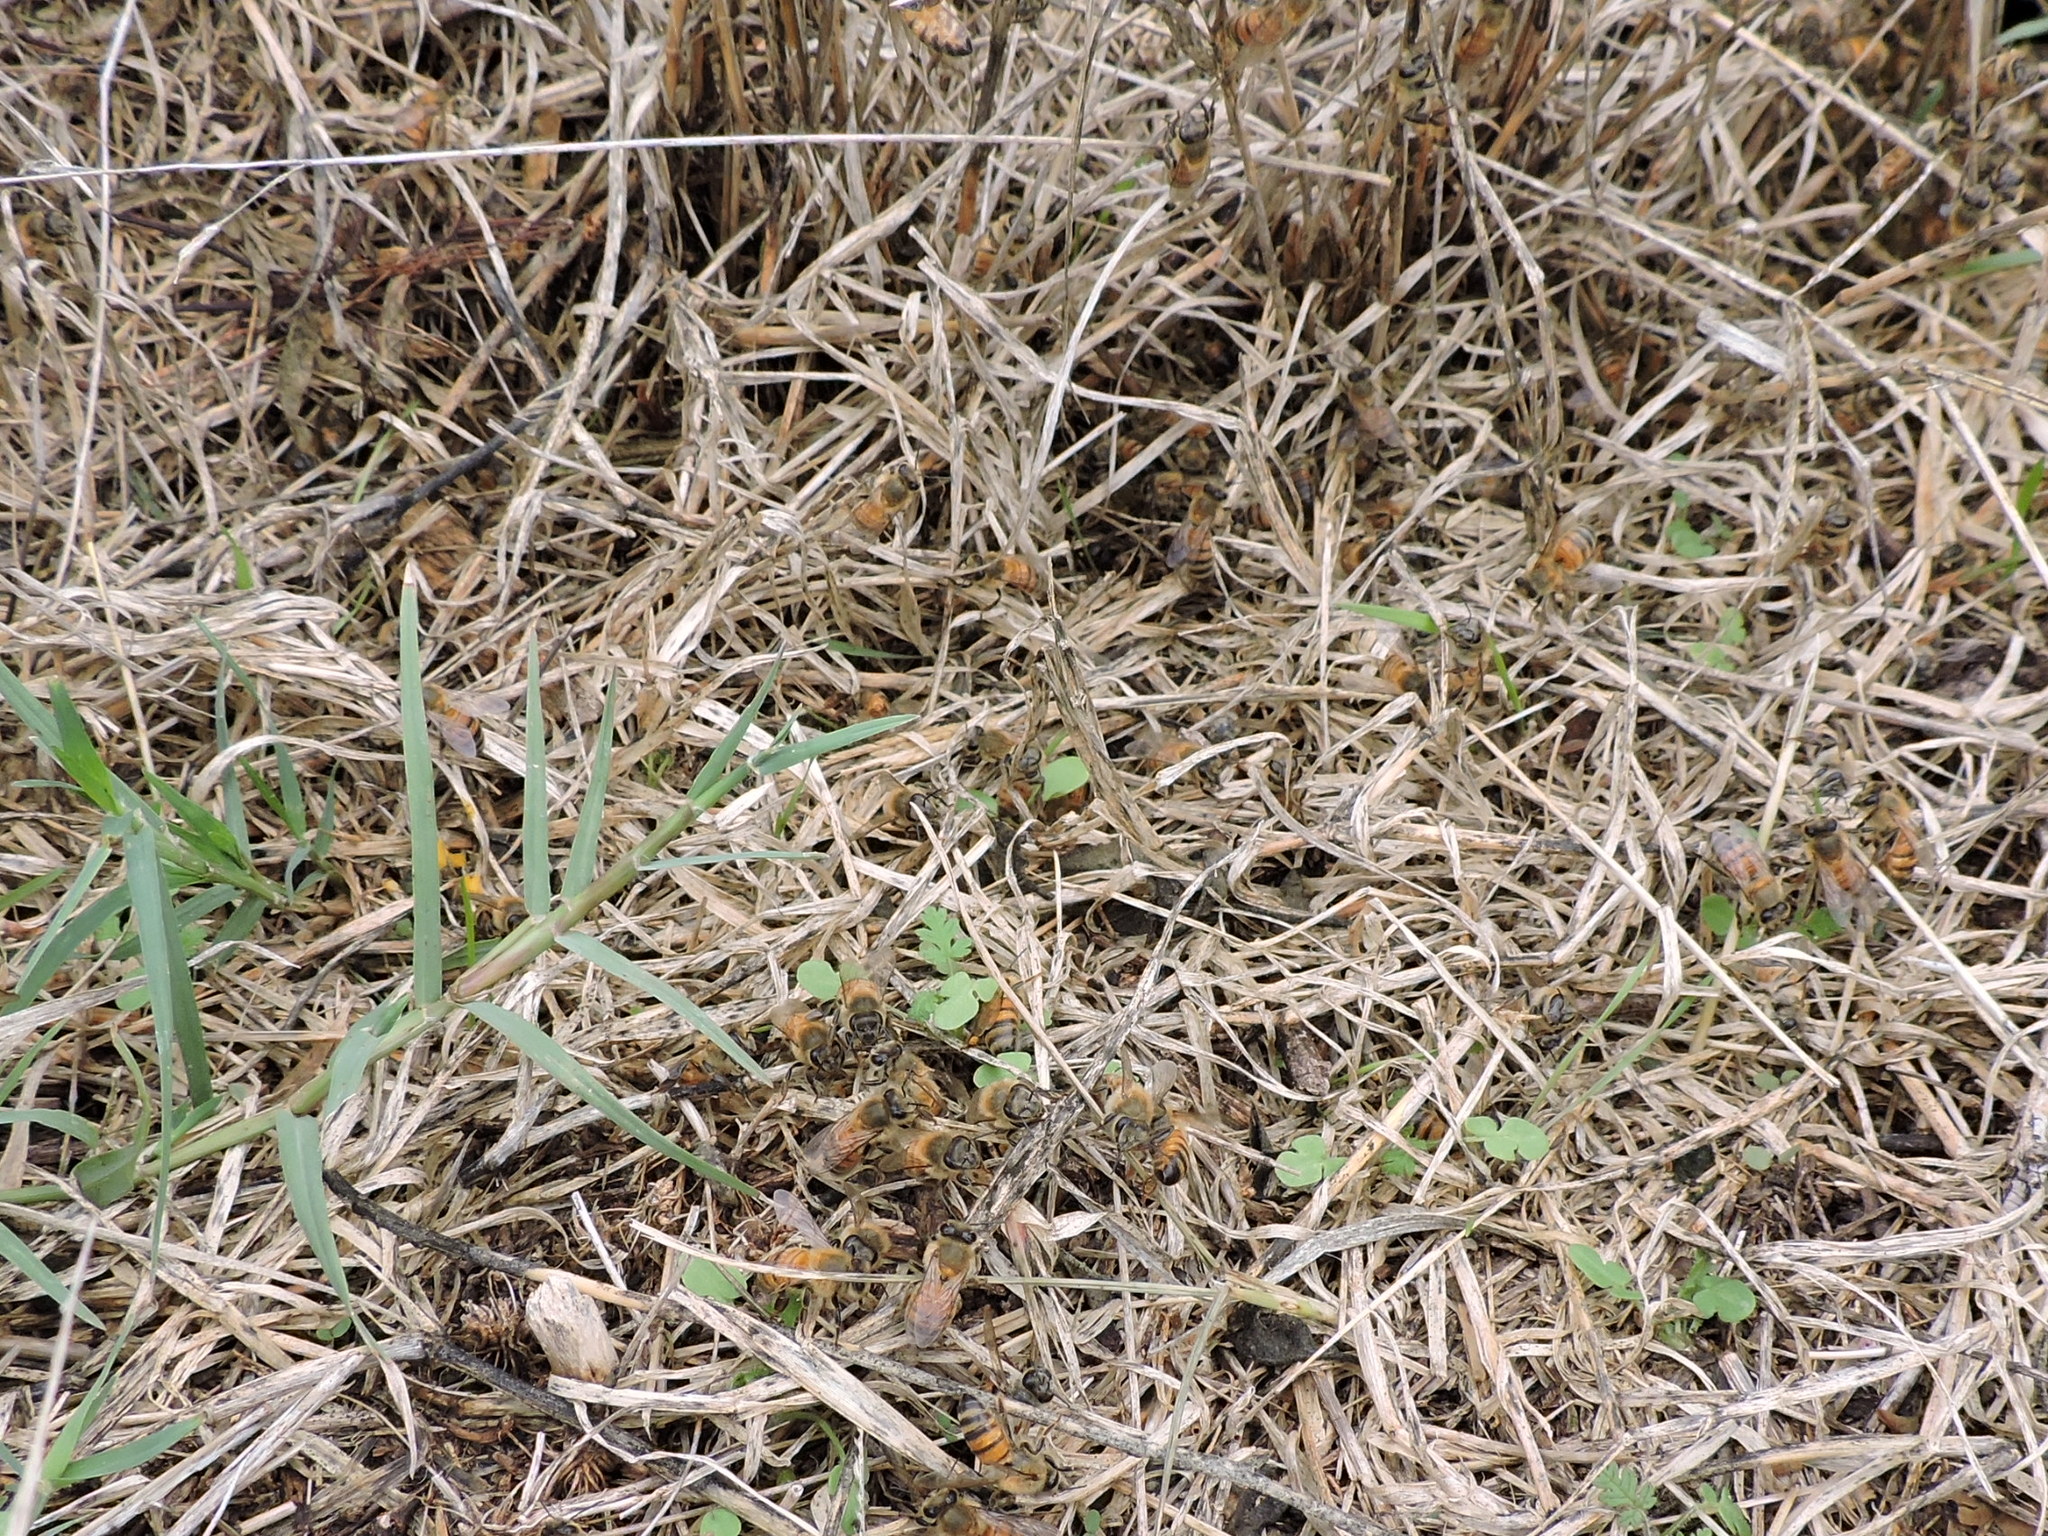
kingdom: Animalia
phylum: Arthropoda
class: Insecta
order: Hymenoptera
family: Apidae
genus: Apis
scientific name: Apis mellifera
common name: Honey bee
